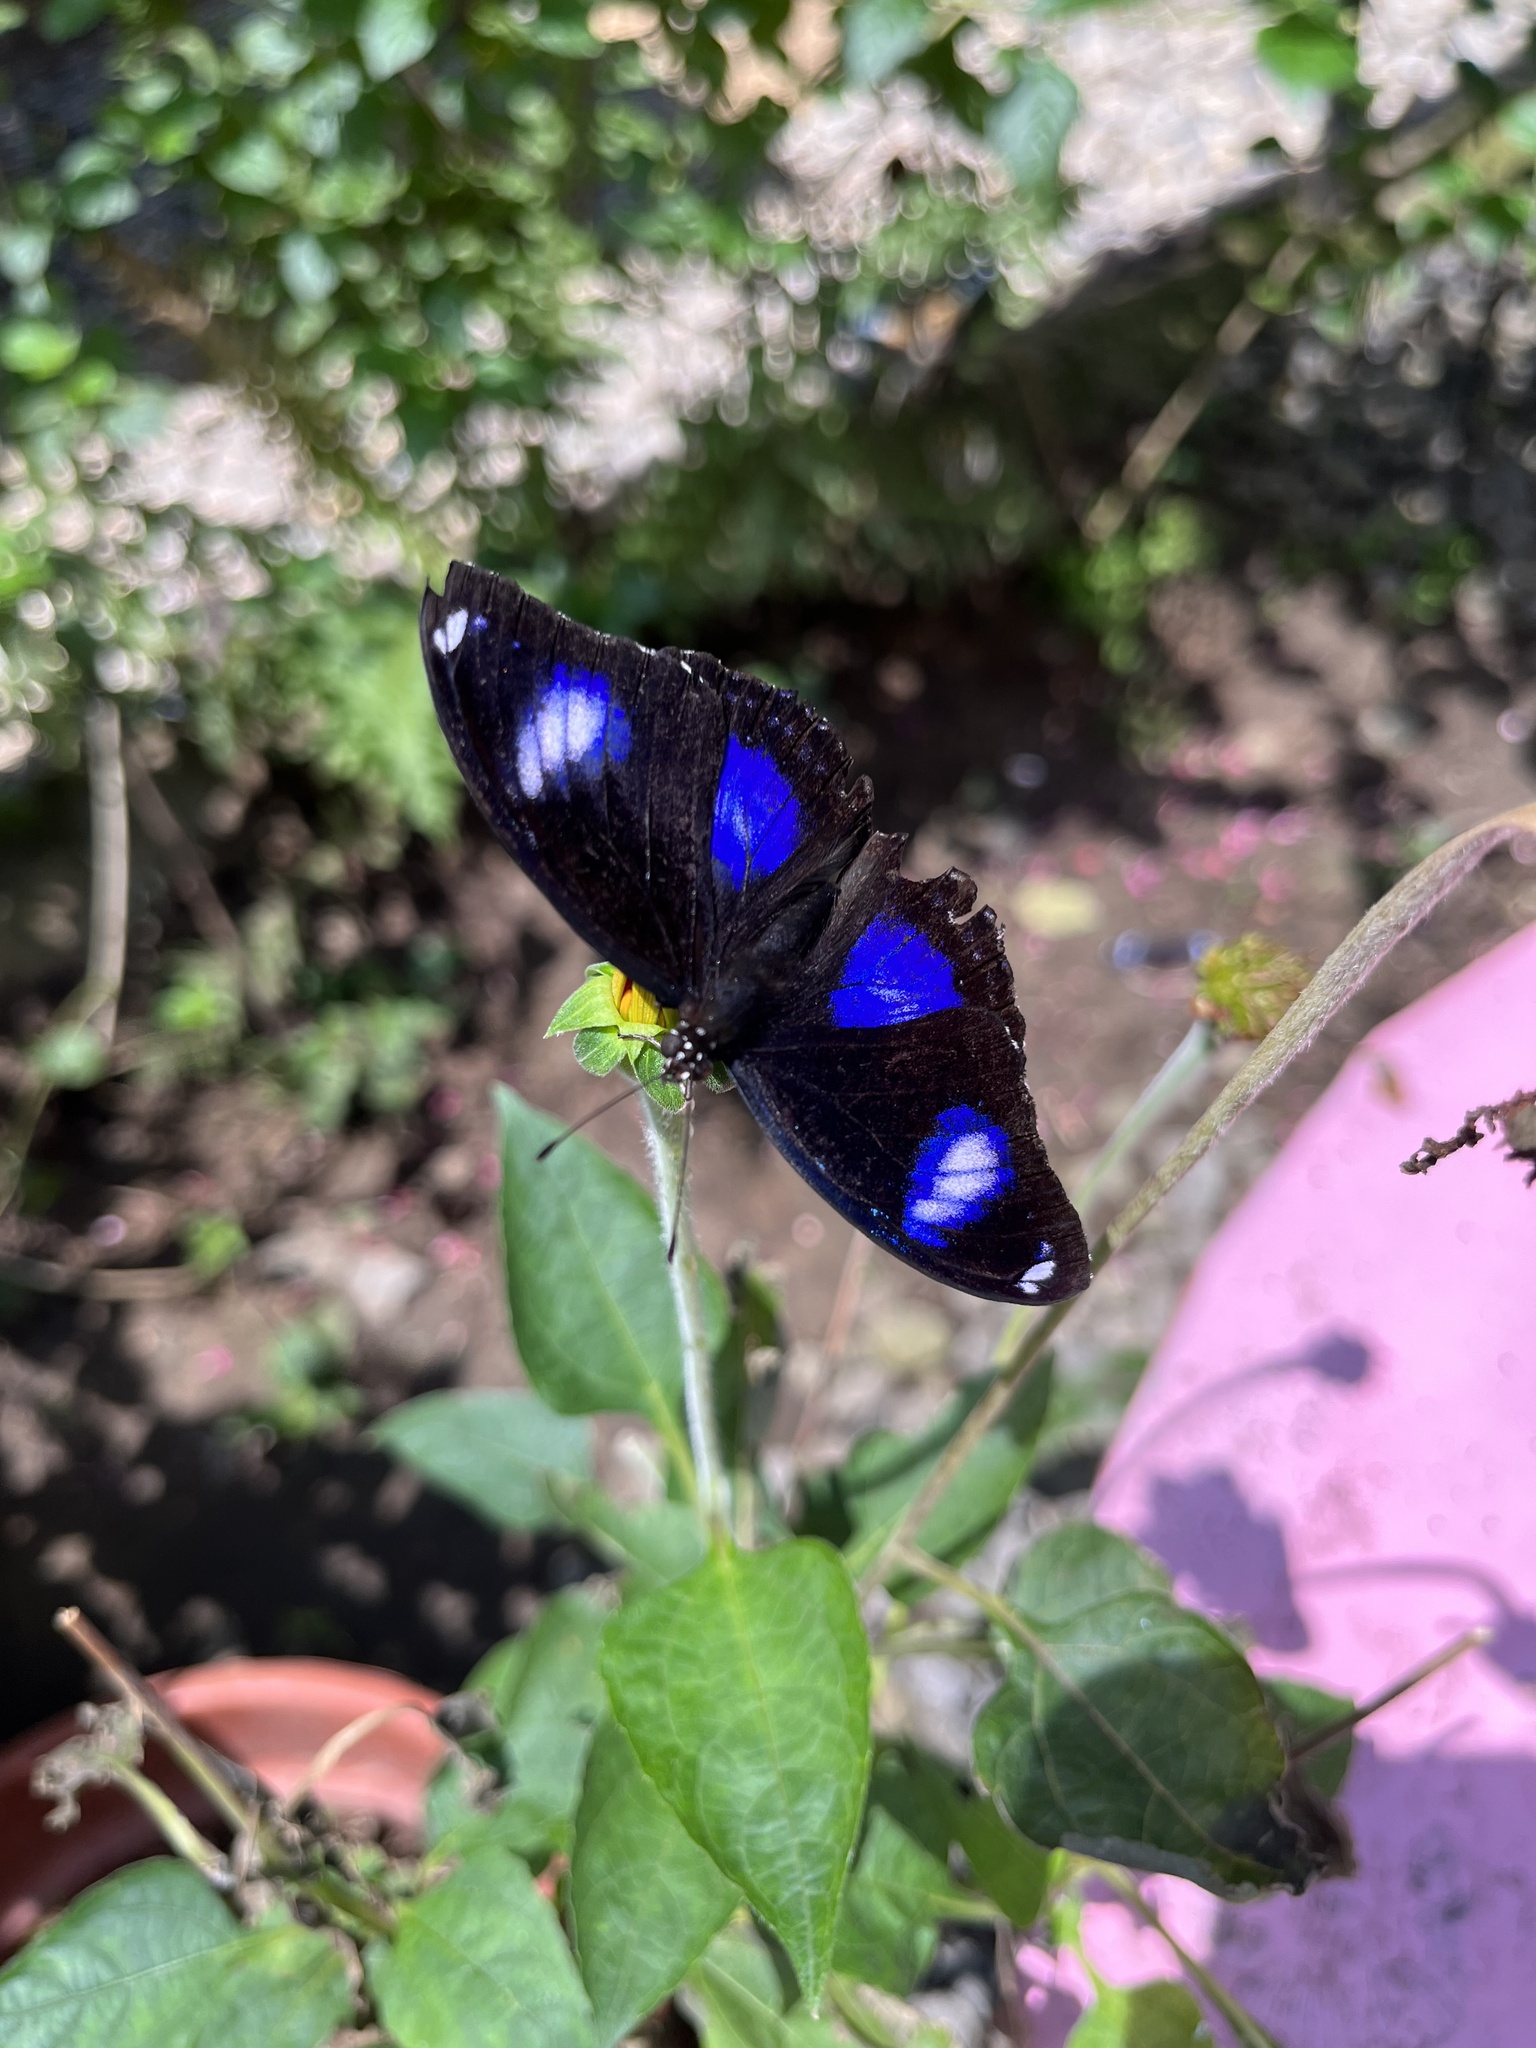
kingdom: Animalia
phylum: Arthropoda
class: Insecta
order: Lepidoptera
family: Nymphalidae
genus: Hypolimnas
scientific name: Hypolimnas bolina
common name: Great eggfly
